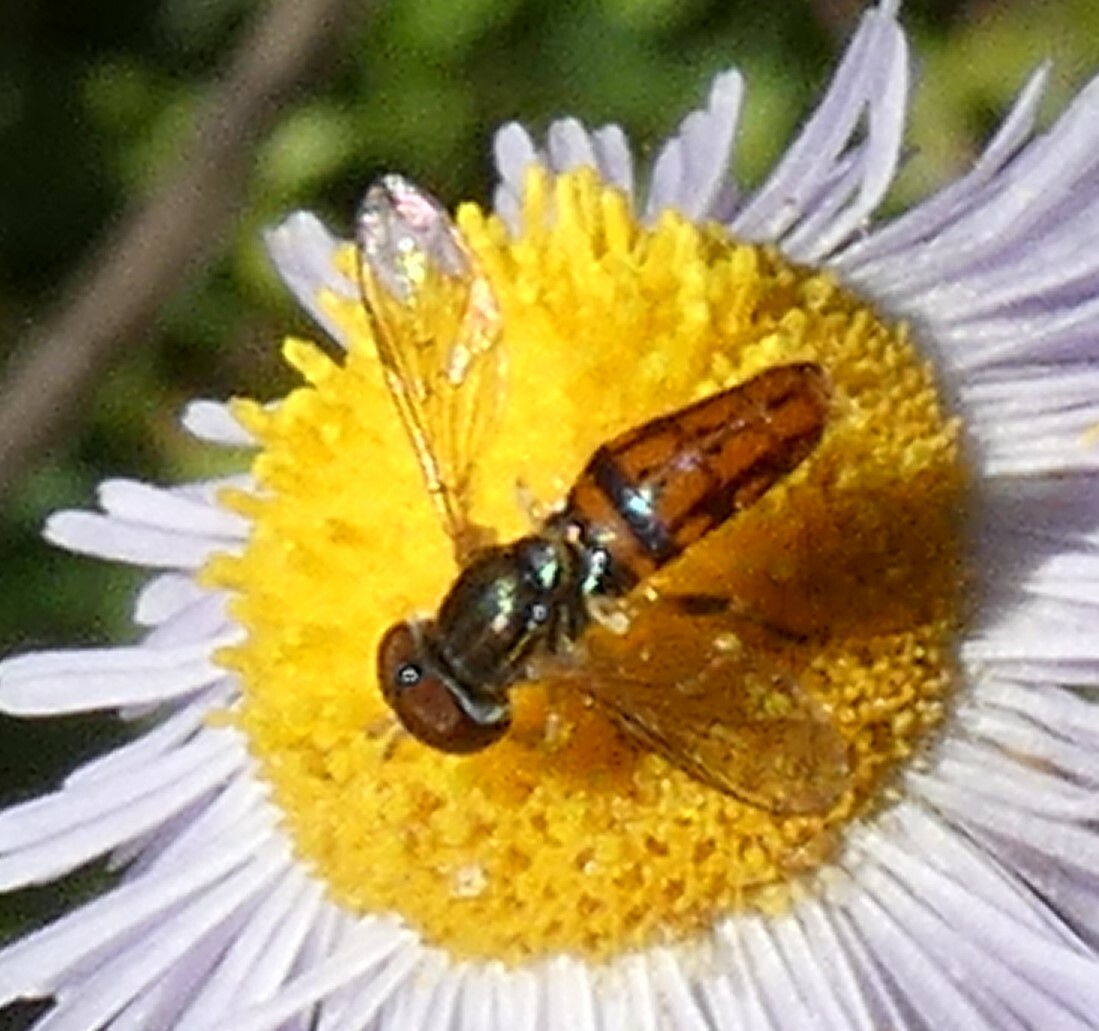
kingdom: Animalia
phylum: Arthropoda
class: Insecta
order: Diptera
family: Syrphidae
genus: Toxomerus
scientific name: Toxomerus boscii
